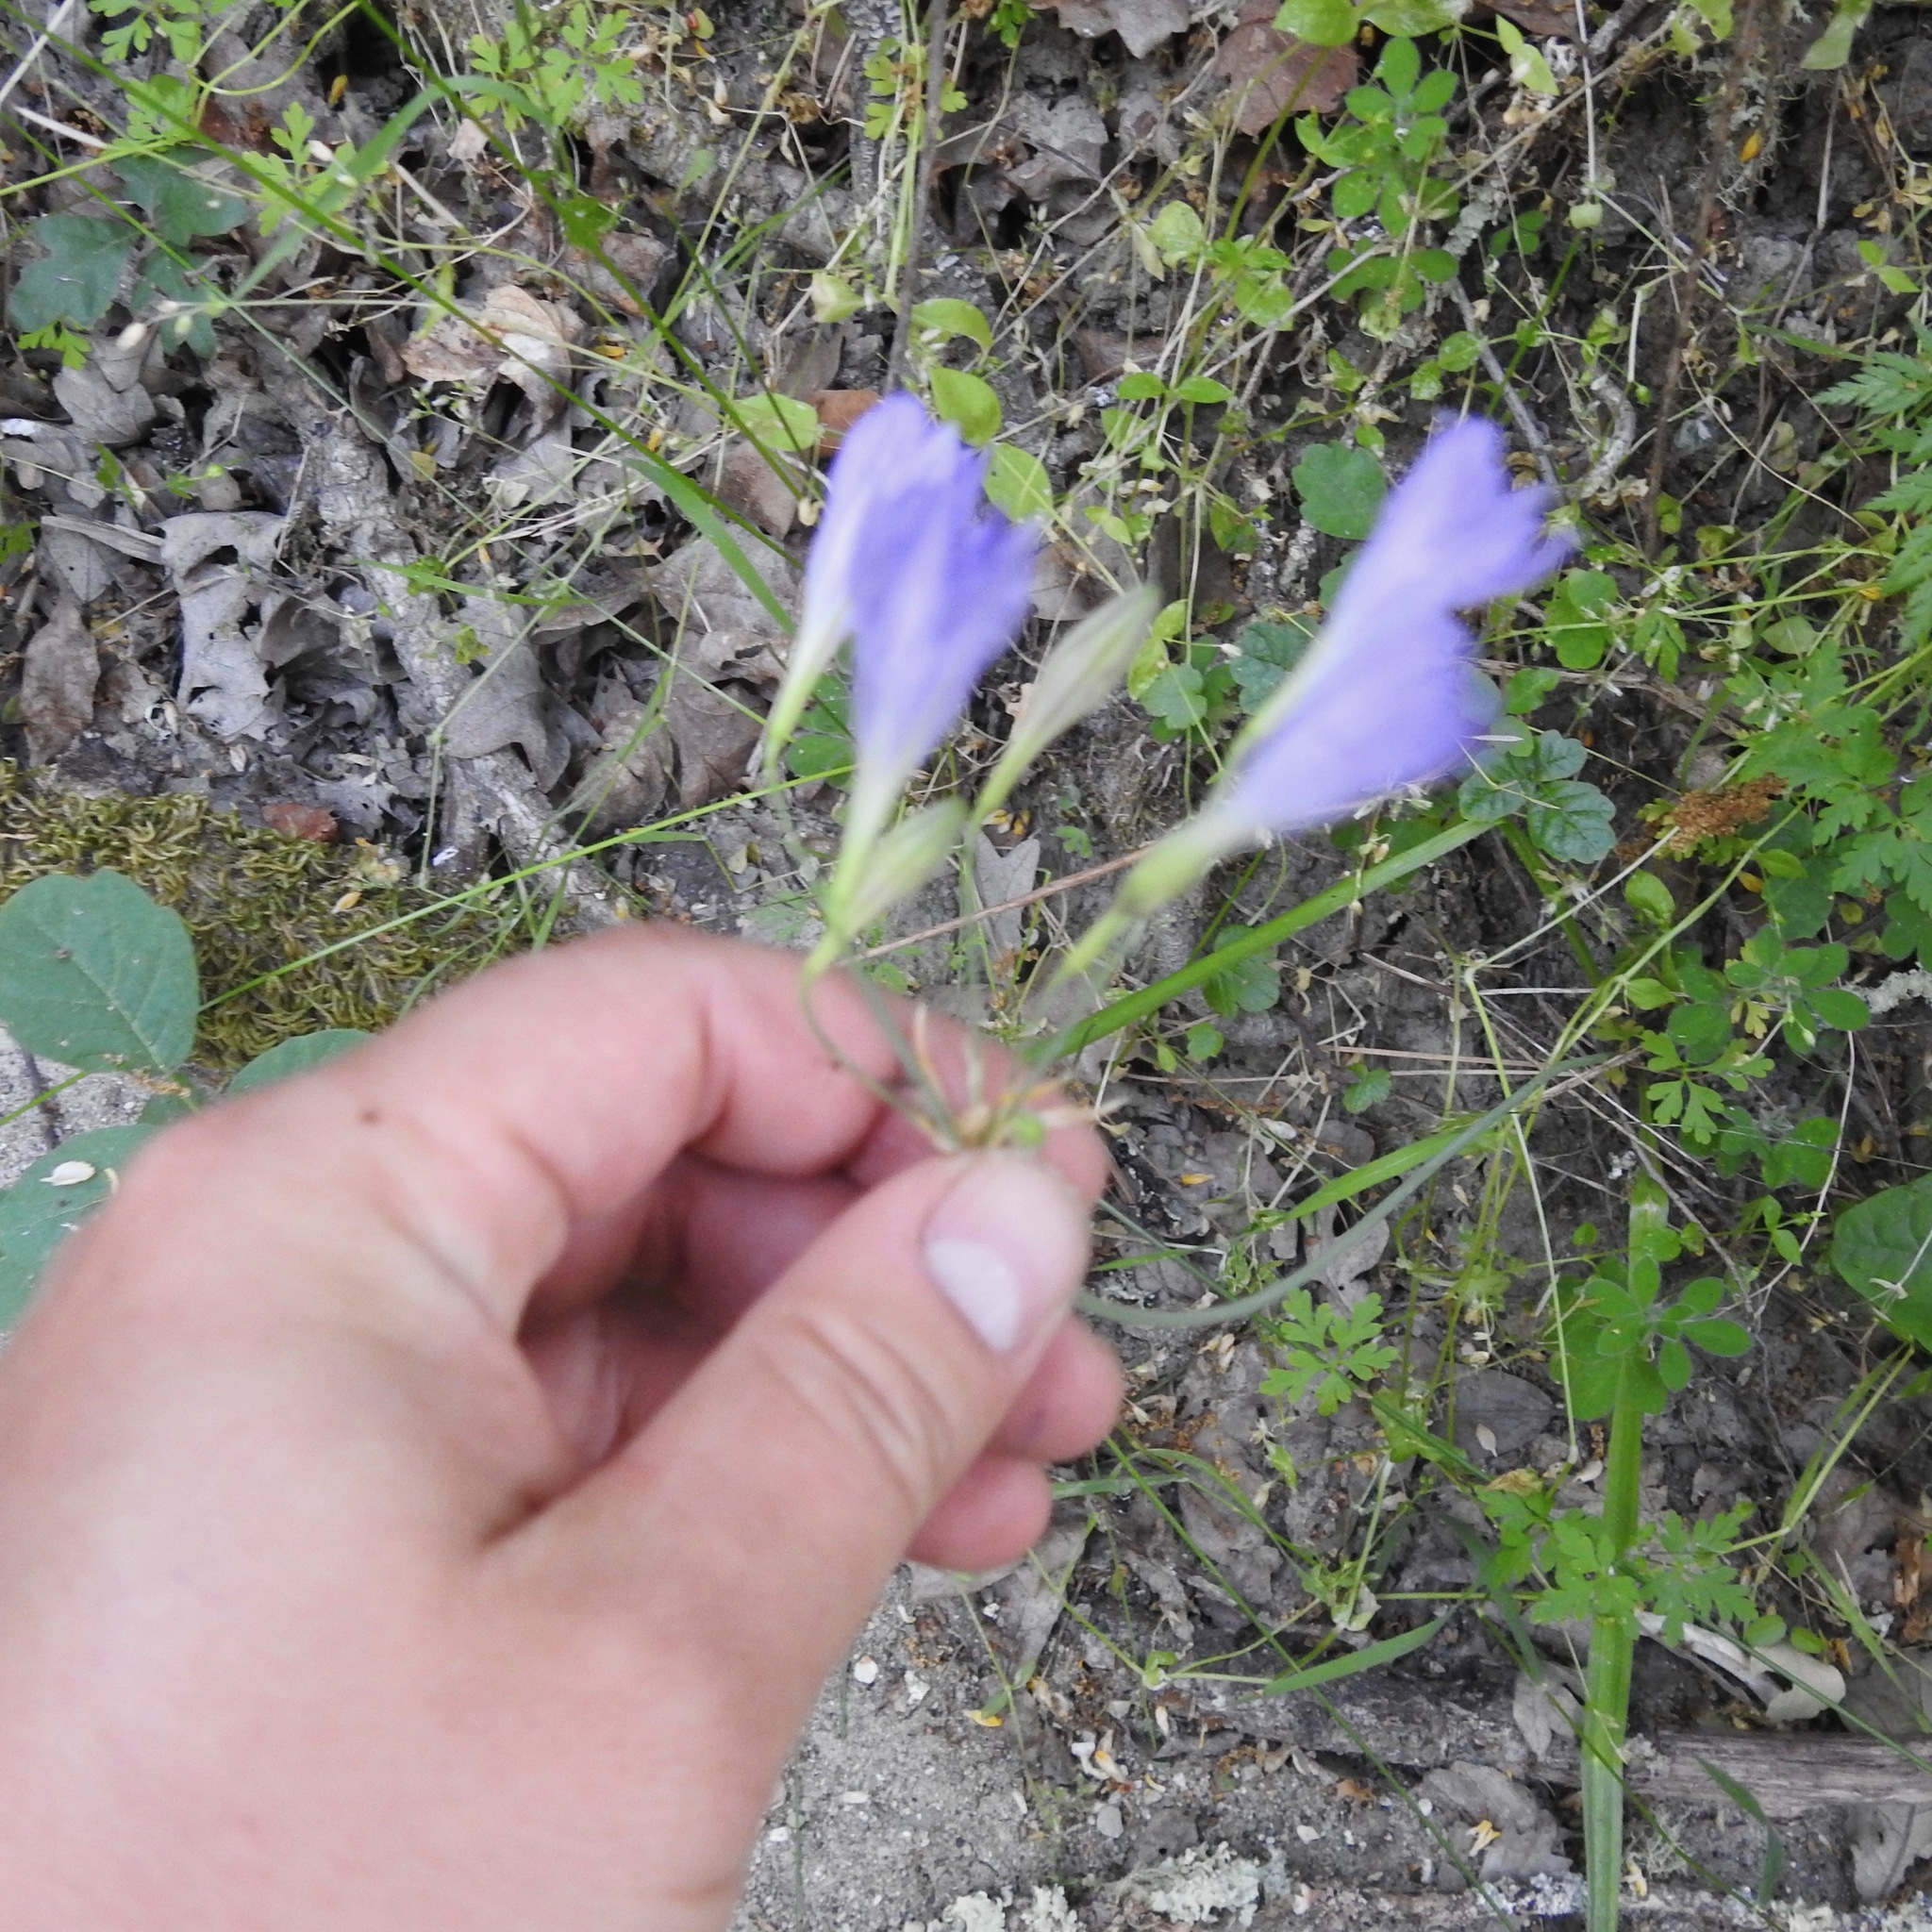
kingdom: Plantae
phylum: Tracheophyta
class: Liliopsida
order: Asparagales
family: Asparagaceae
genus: Triteleia
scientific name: Triteleia laxa
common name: Triplet-lily
